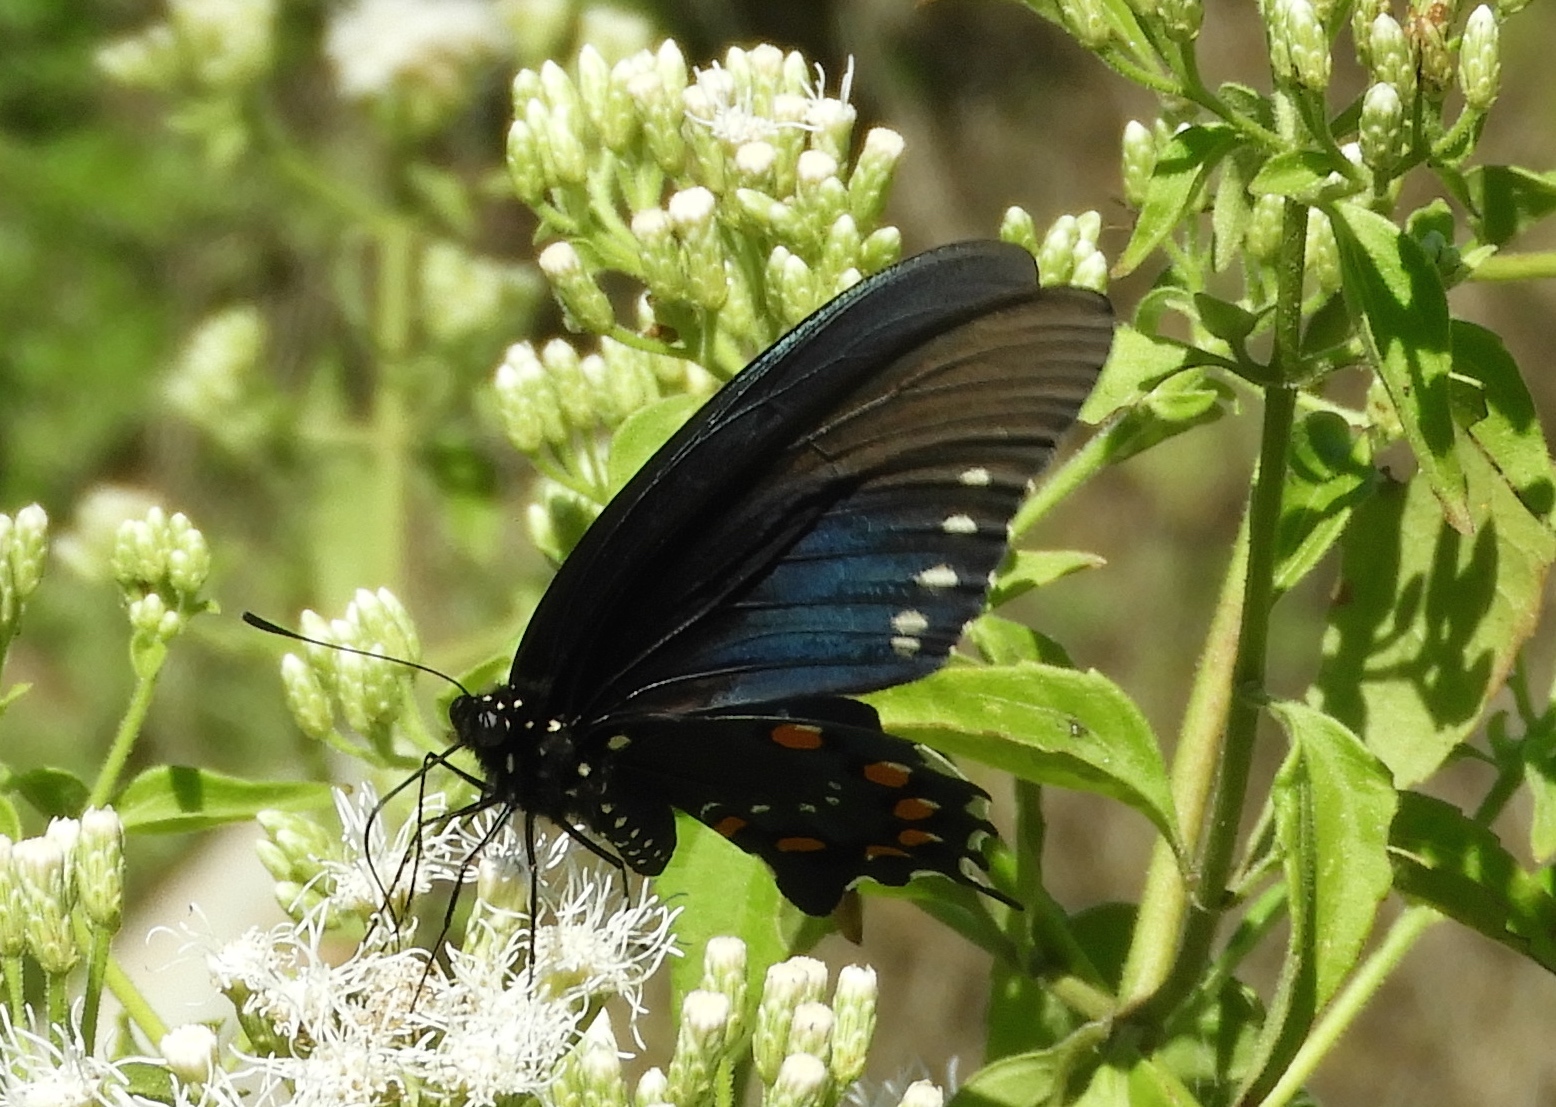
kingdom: Animalia
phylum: Arthropoda
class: Insecta
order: Lepidoptera
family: Papilionidae
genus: Battus
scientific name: Battus philenor
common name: Pipevine swallowtail
